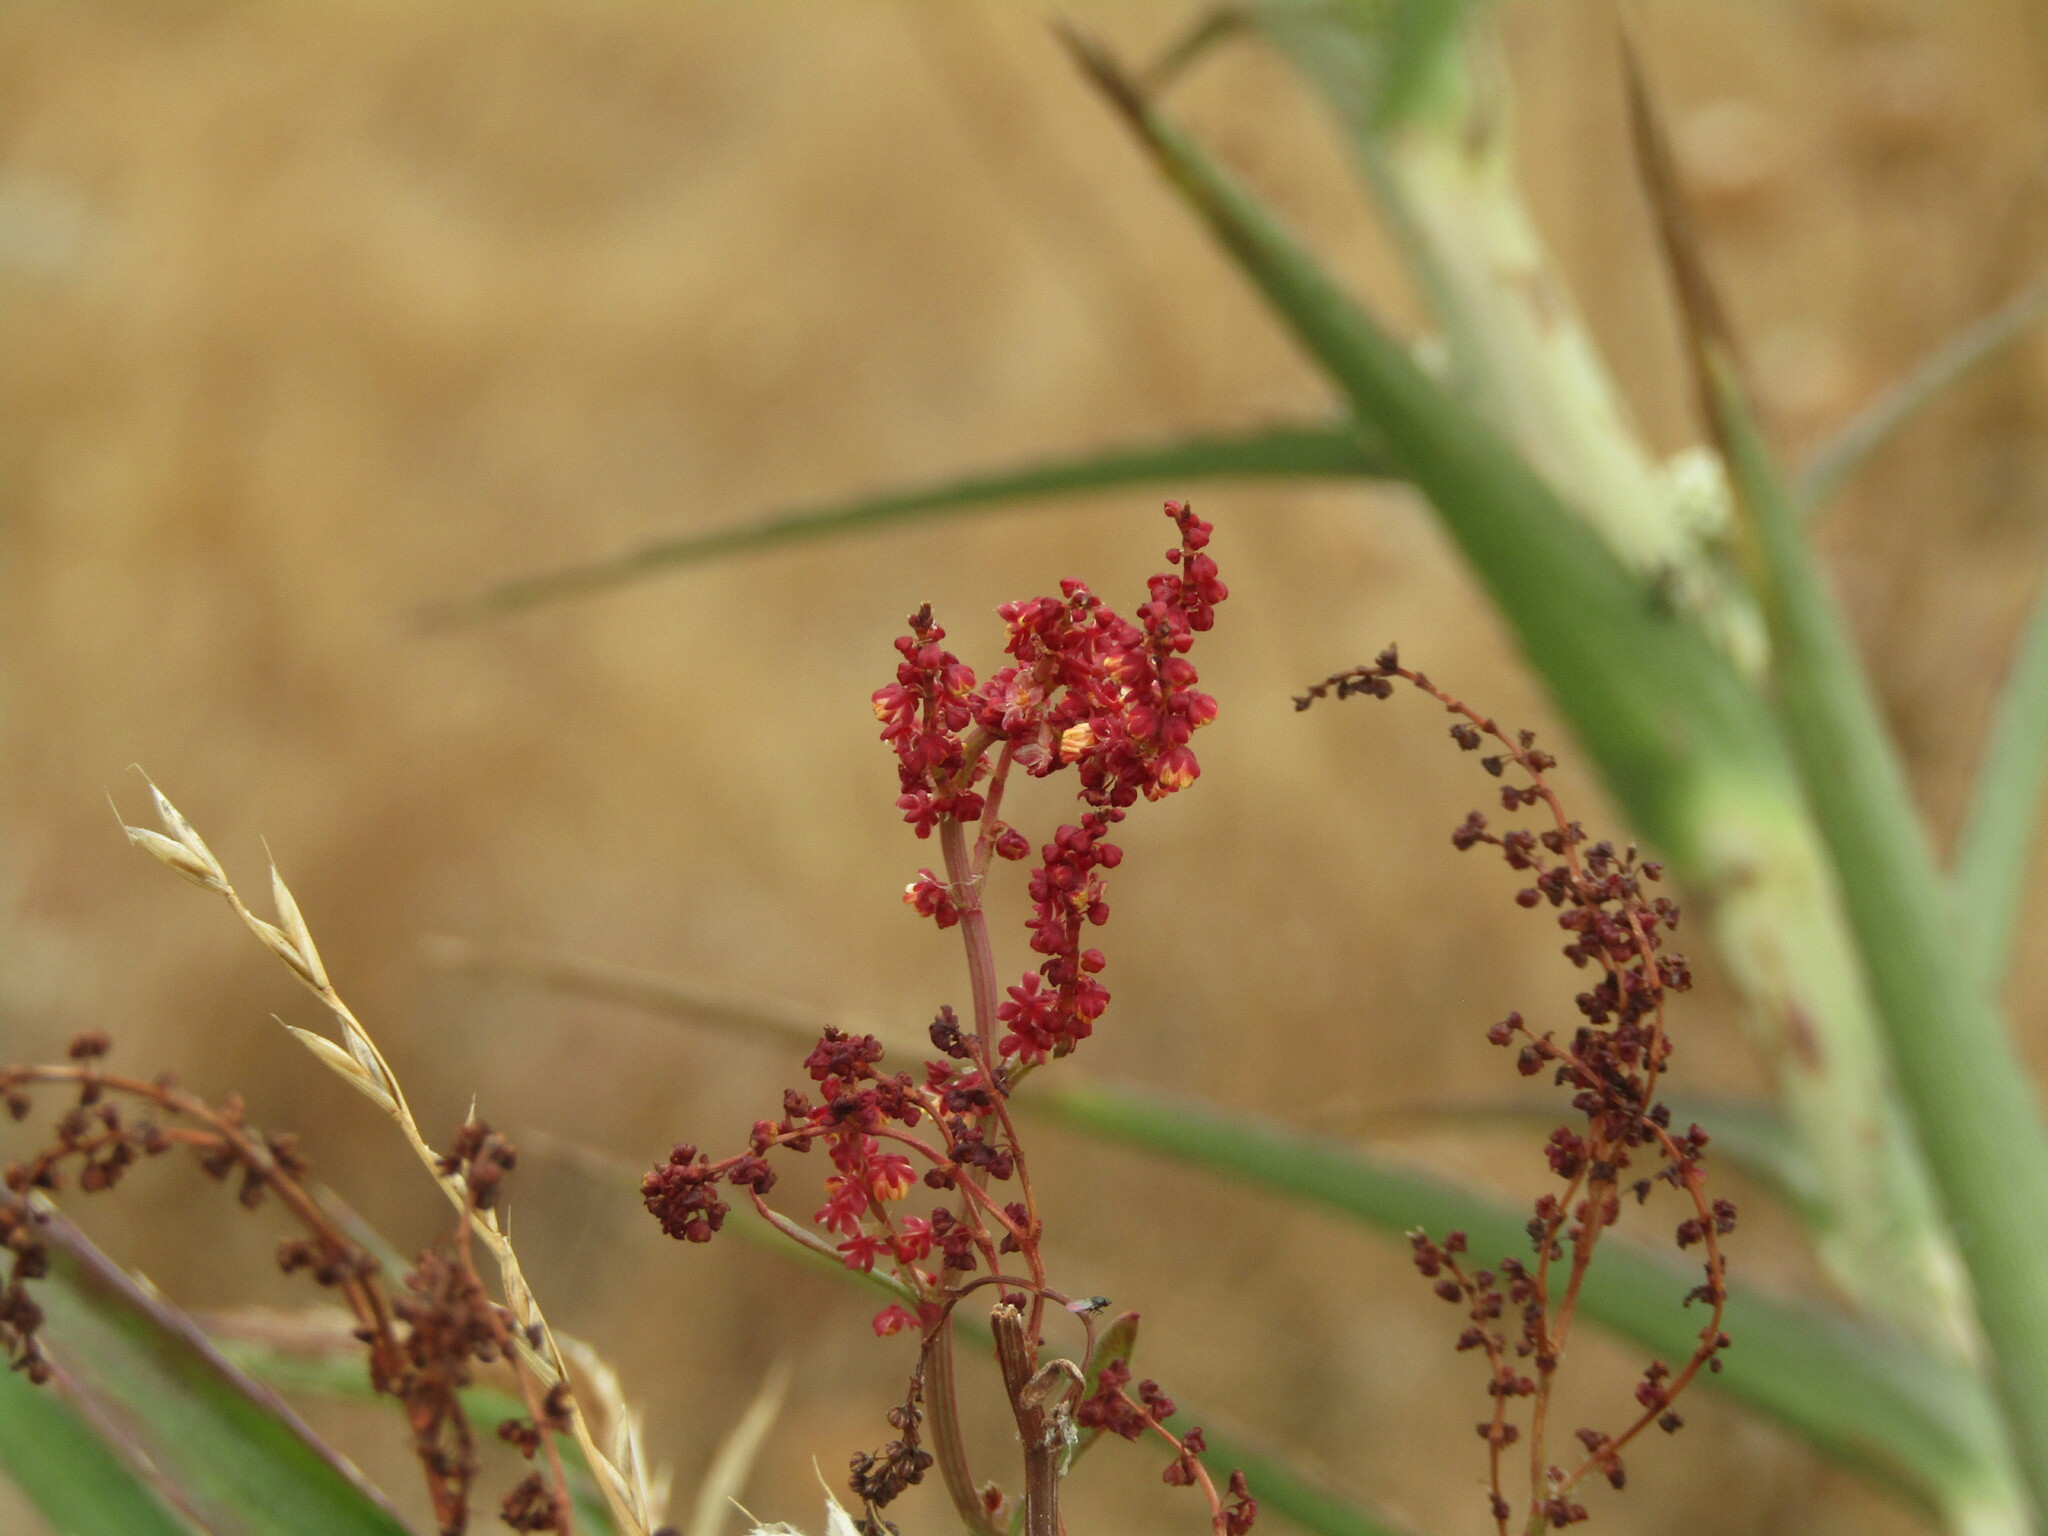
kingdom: Plantae
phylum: Tracheophyta
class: Magnoliopsida
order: Caryophyllales
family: Polygonaceae
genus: Rumex
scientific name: Rumex acetosella
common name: Common sheep sorrel
